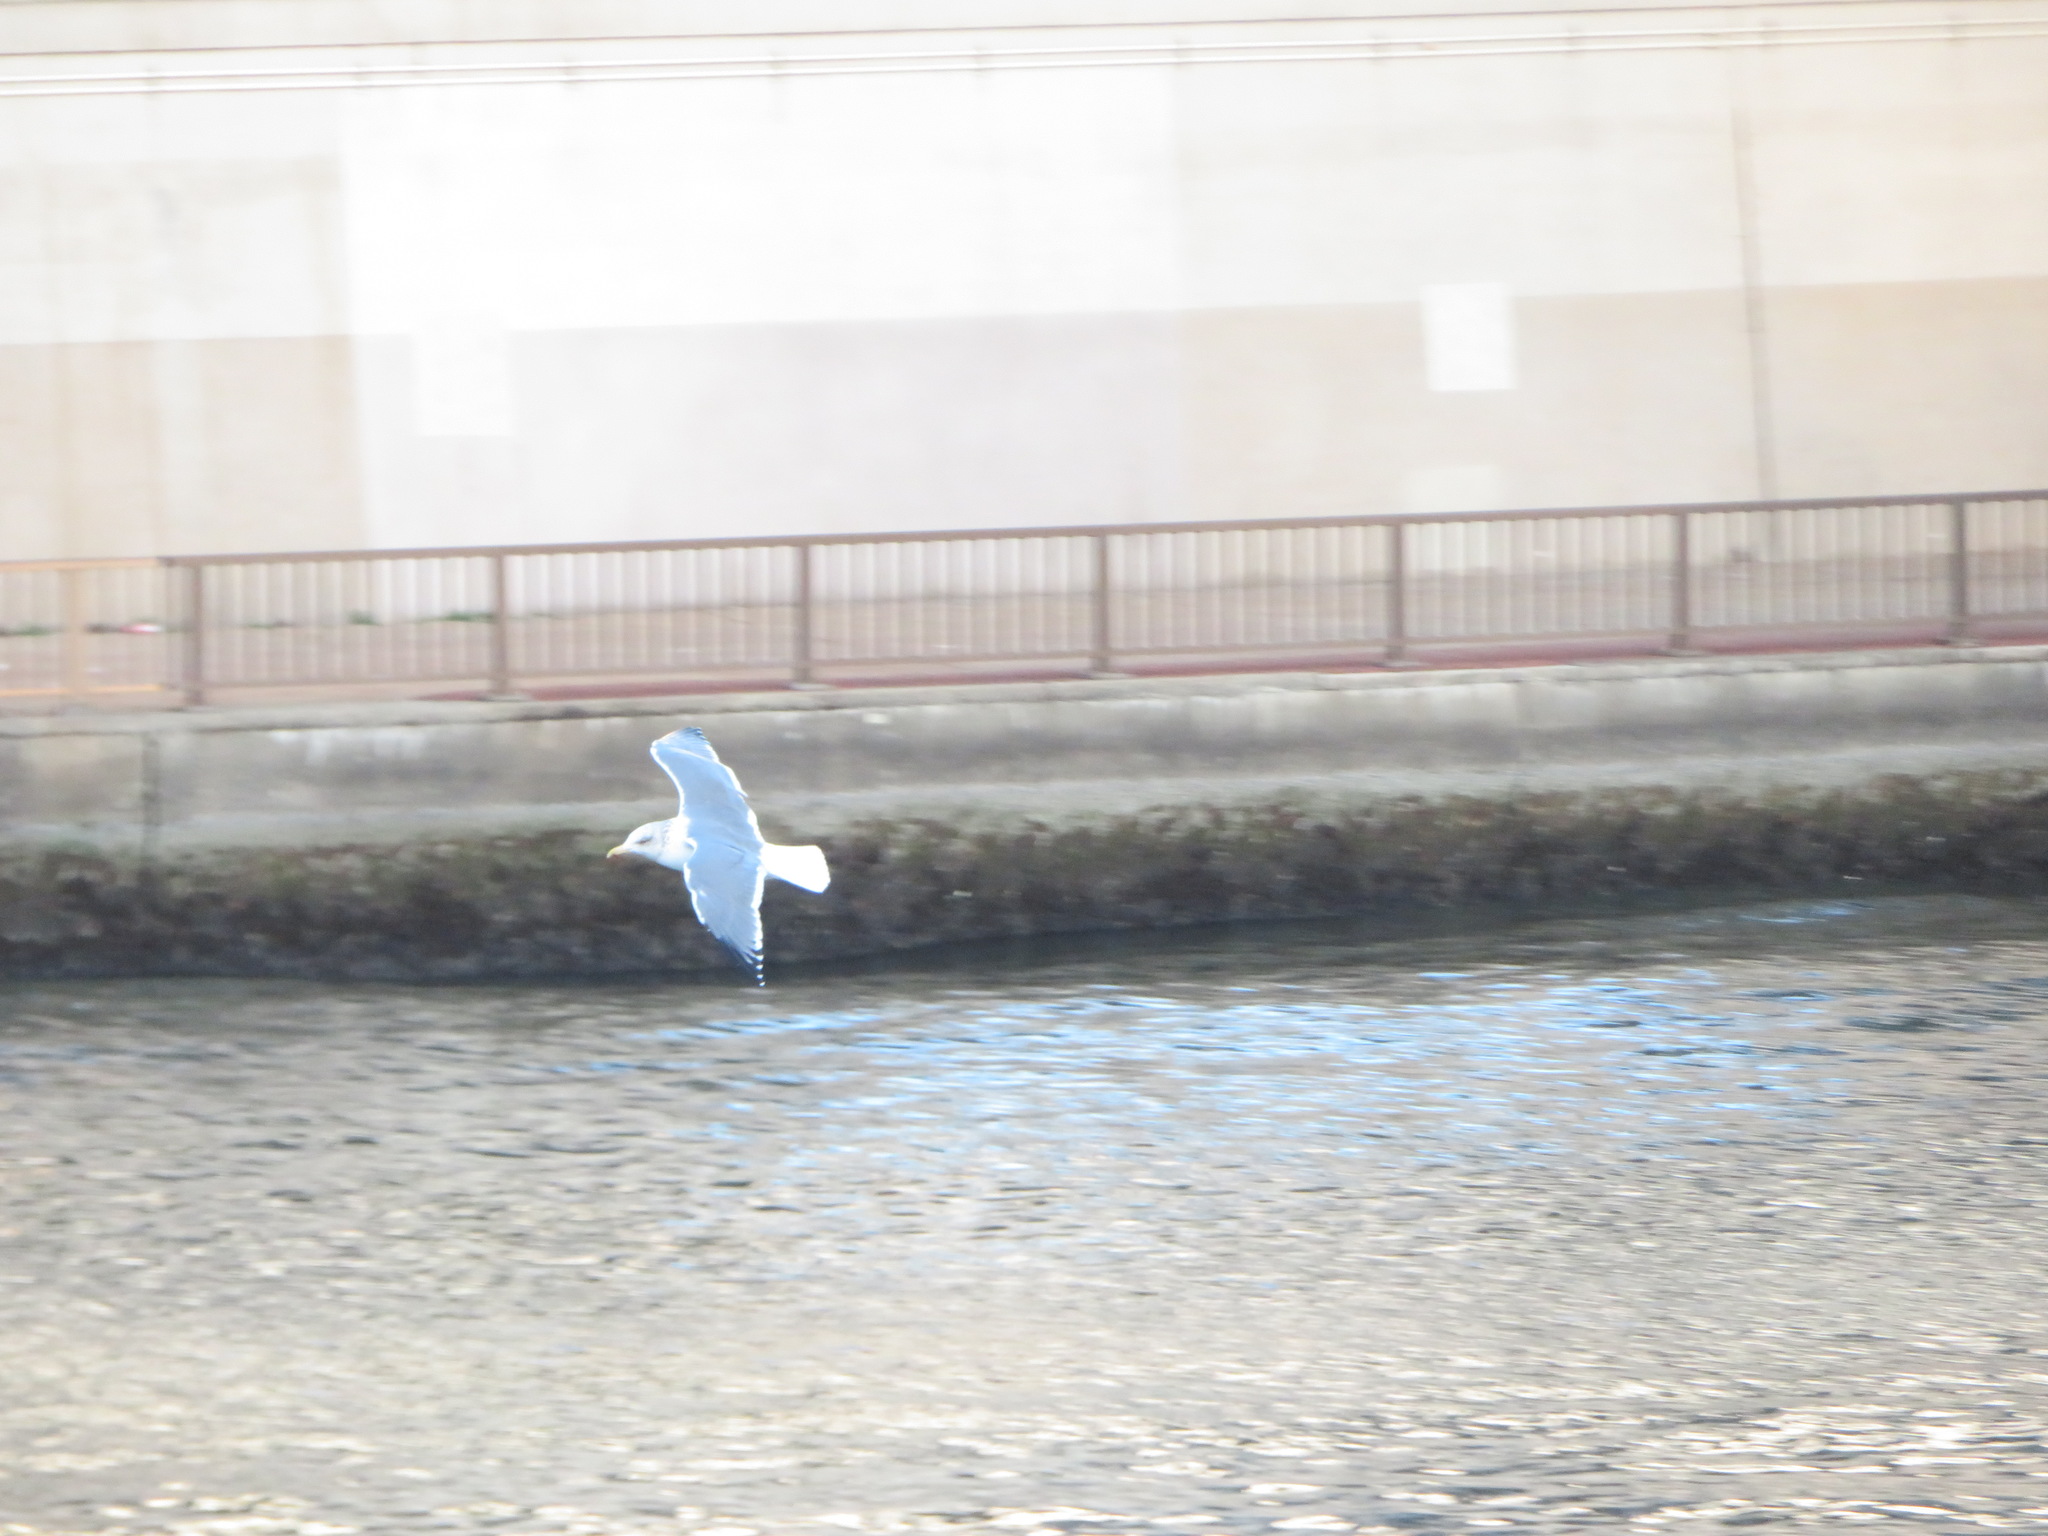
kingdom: Animalia
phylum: Chordata
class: Aves
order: Charadriiformes
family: Laridae
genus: Larus
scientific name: Larus vegae
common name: Vega gull
